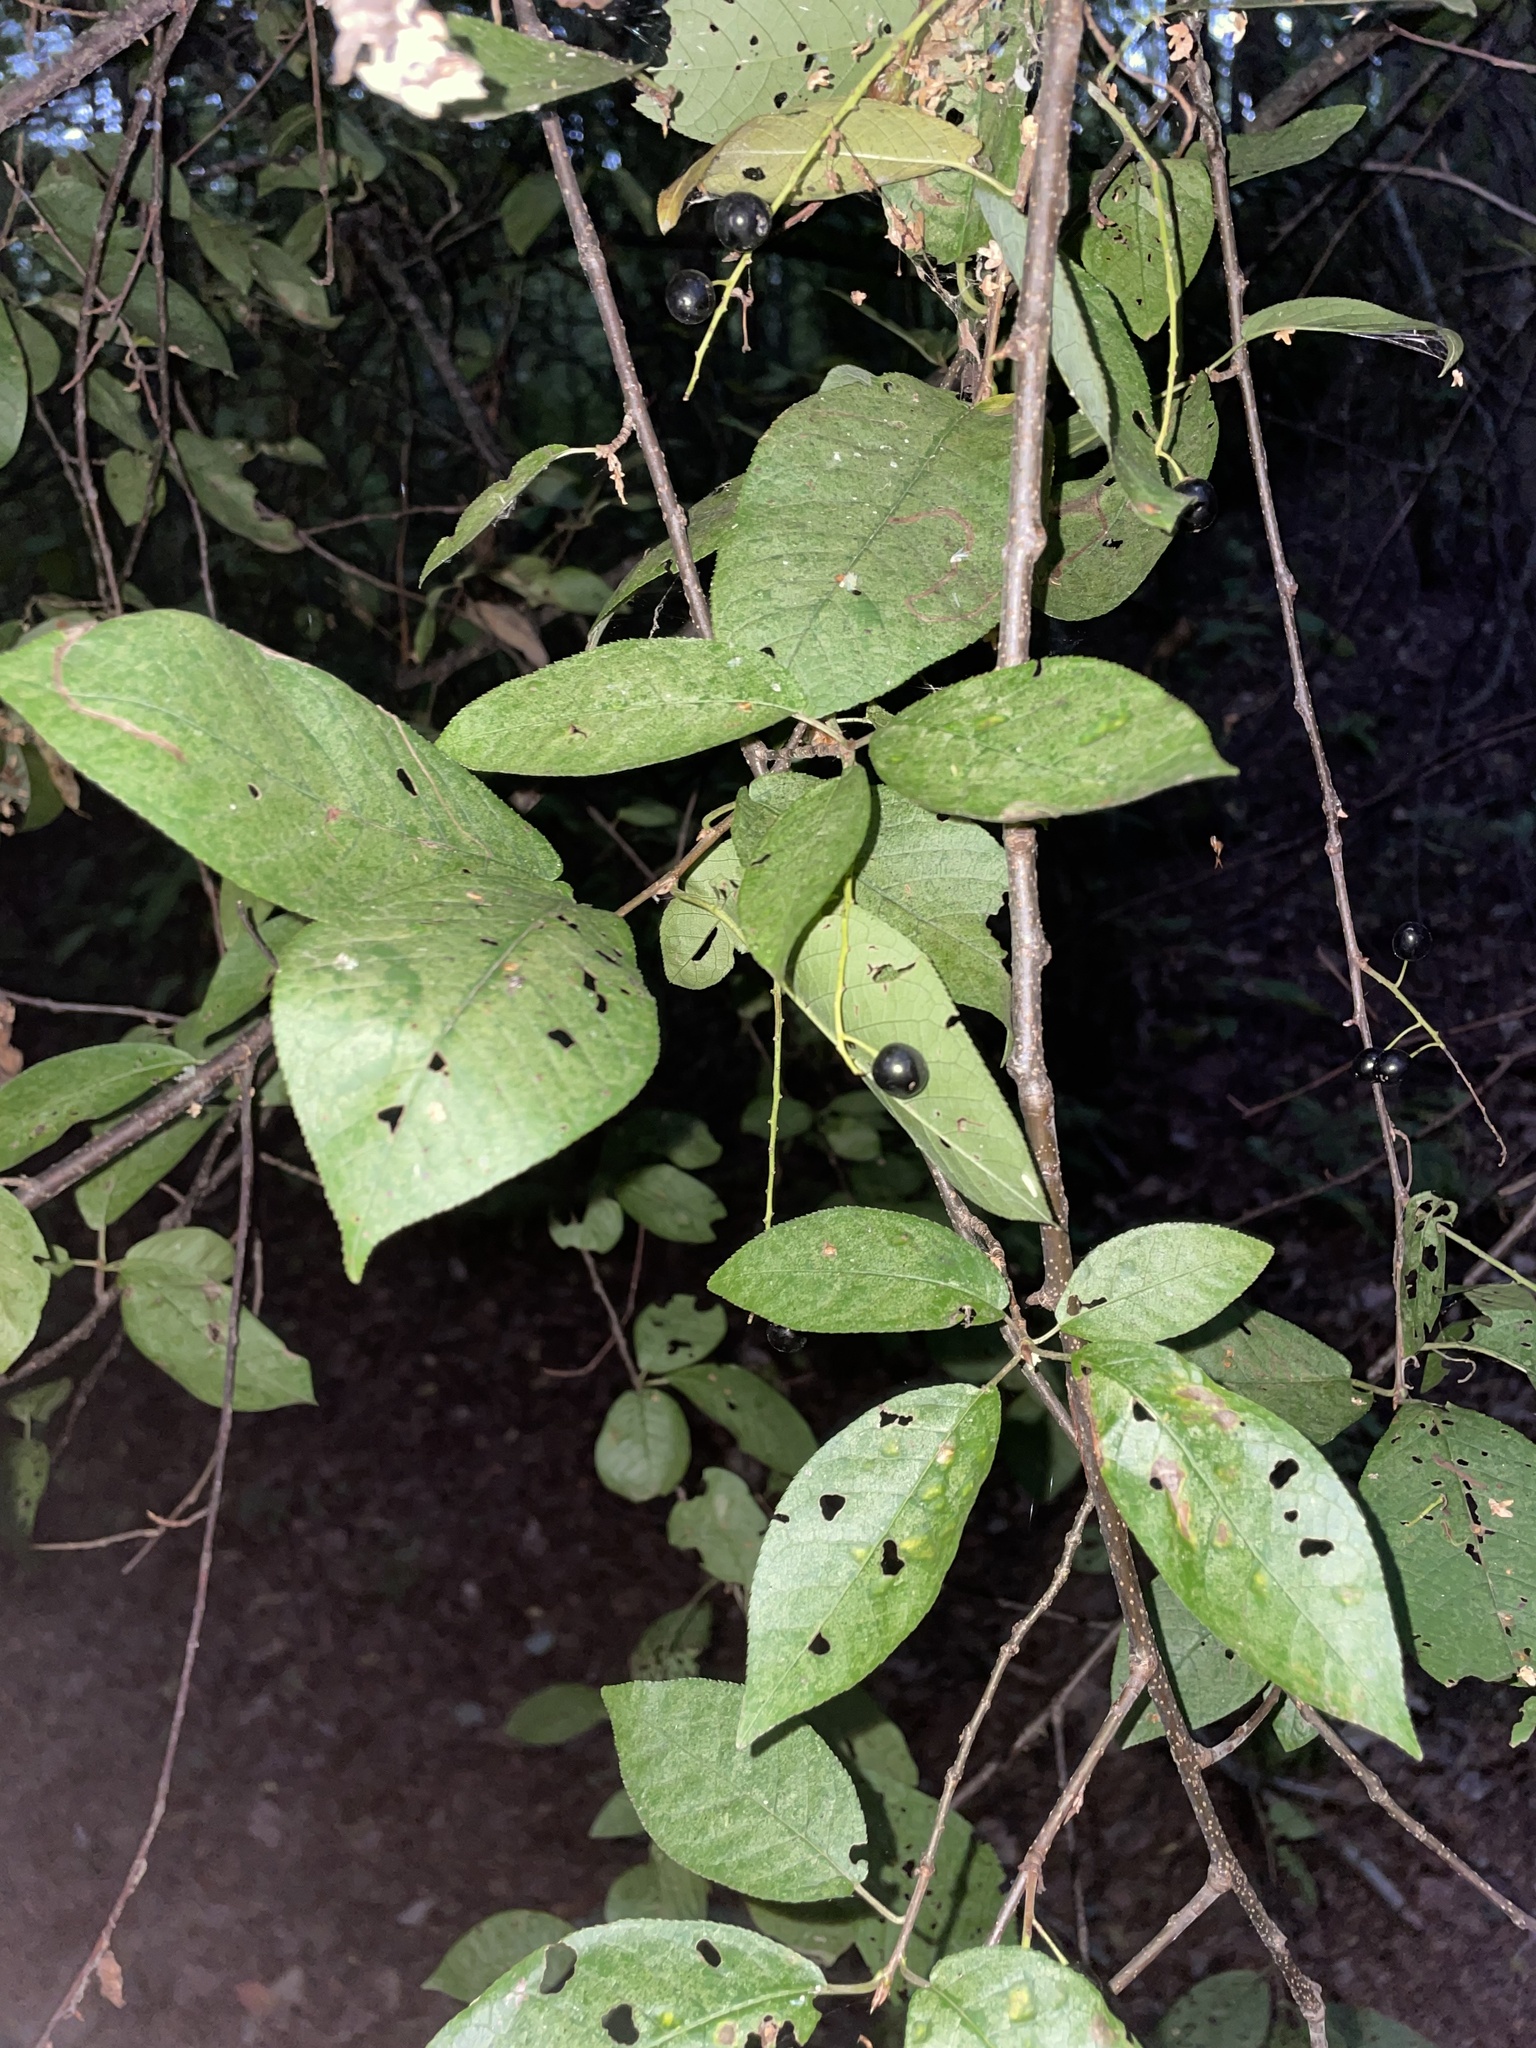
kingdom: Plantae
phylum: Tracheophyta
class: Magnoliopsida
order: Rosales
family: Rosaceae
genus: Prunus
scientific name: Prunus padus
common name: Bird cherry
